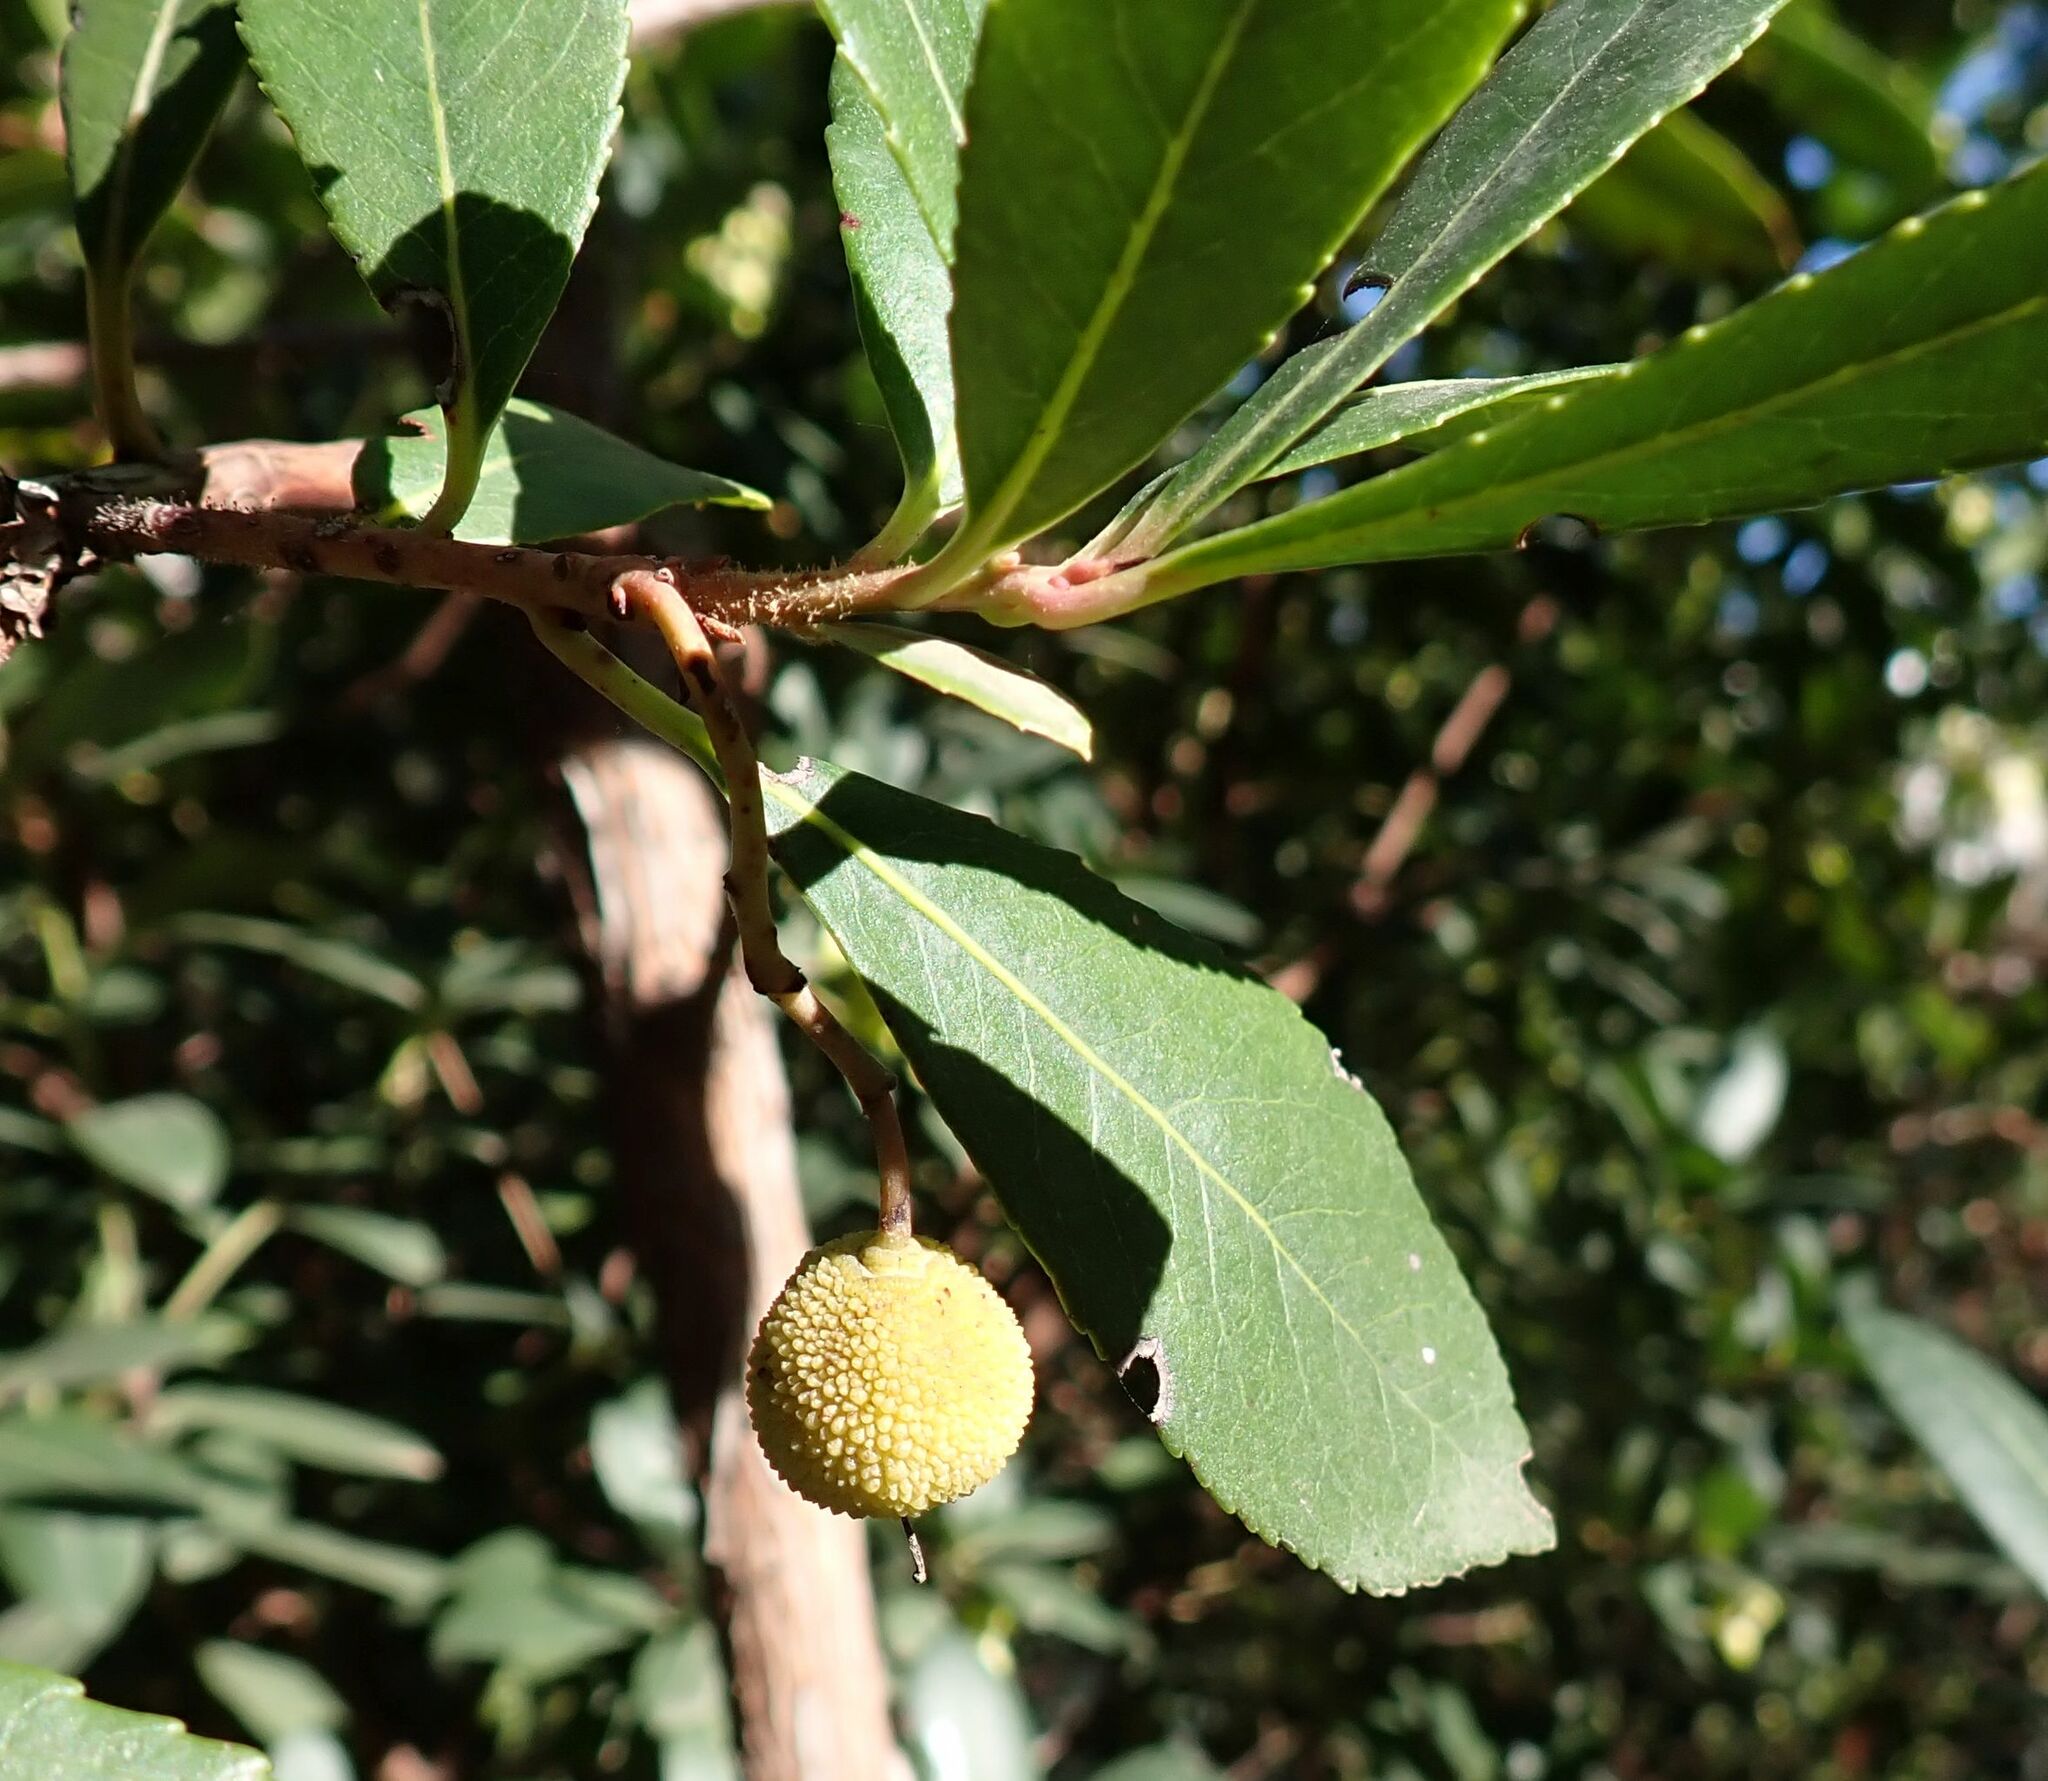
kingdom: Plantae
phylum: Tracheophyta
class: Magnoliopsida
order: Ericales
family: Ericaceae
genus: Arbutus
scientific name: Arbutus unedo
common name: Strawberry-tree
